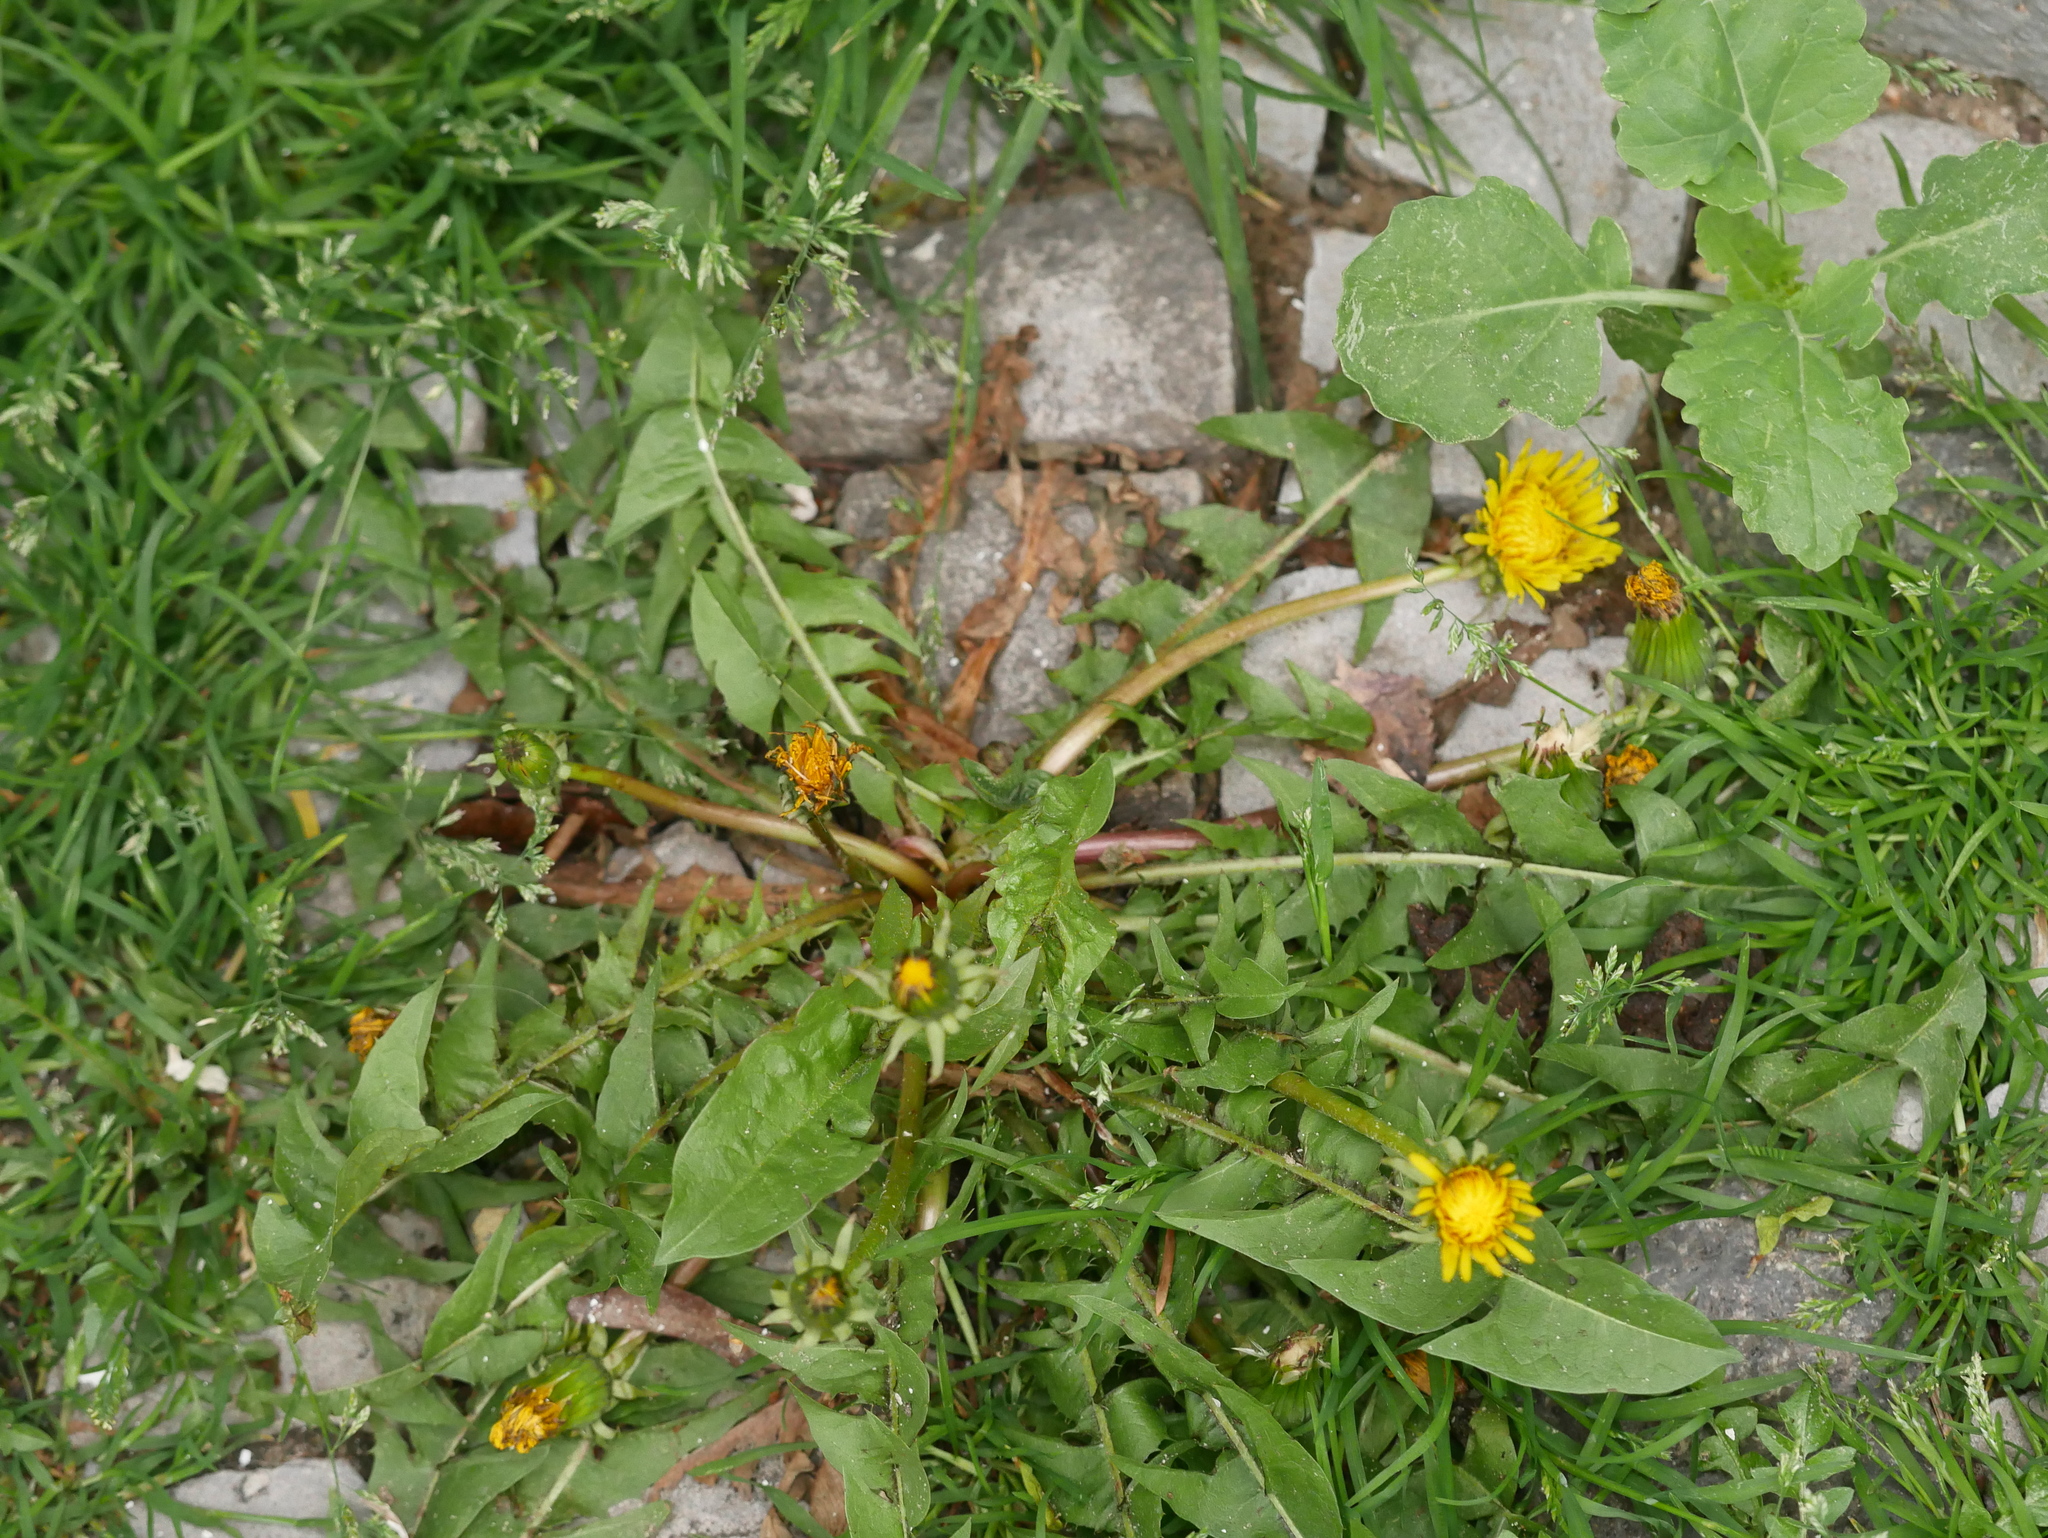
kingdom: Plantae
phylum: Tracheophyta
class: Magnoliopsida
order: Asterales
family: Asteraceae
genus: Taraxacum
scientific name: Taraxacum officinale
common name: Common dandelion
